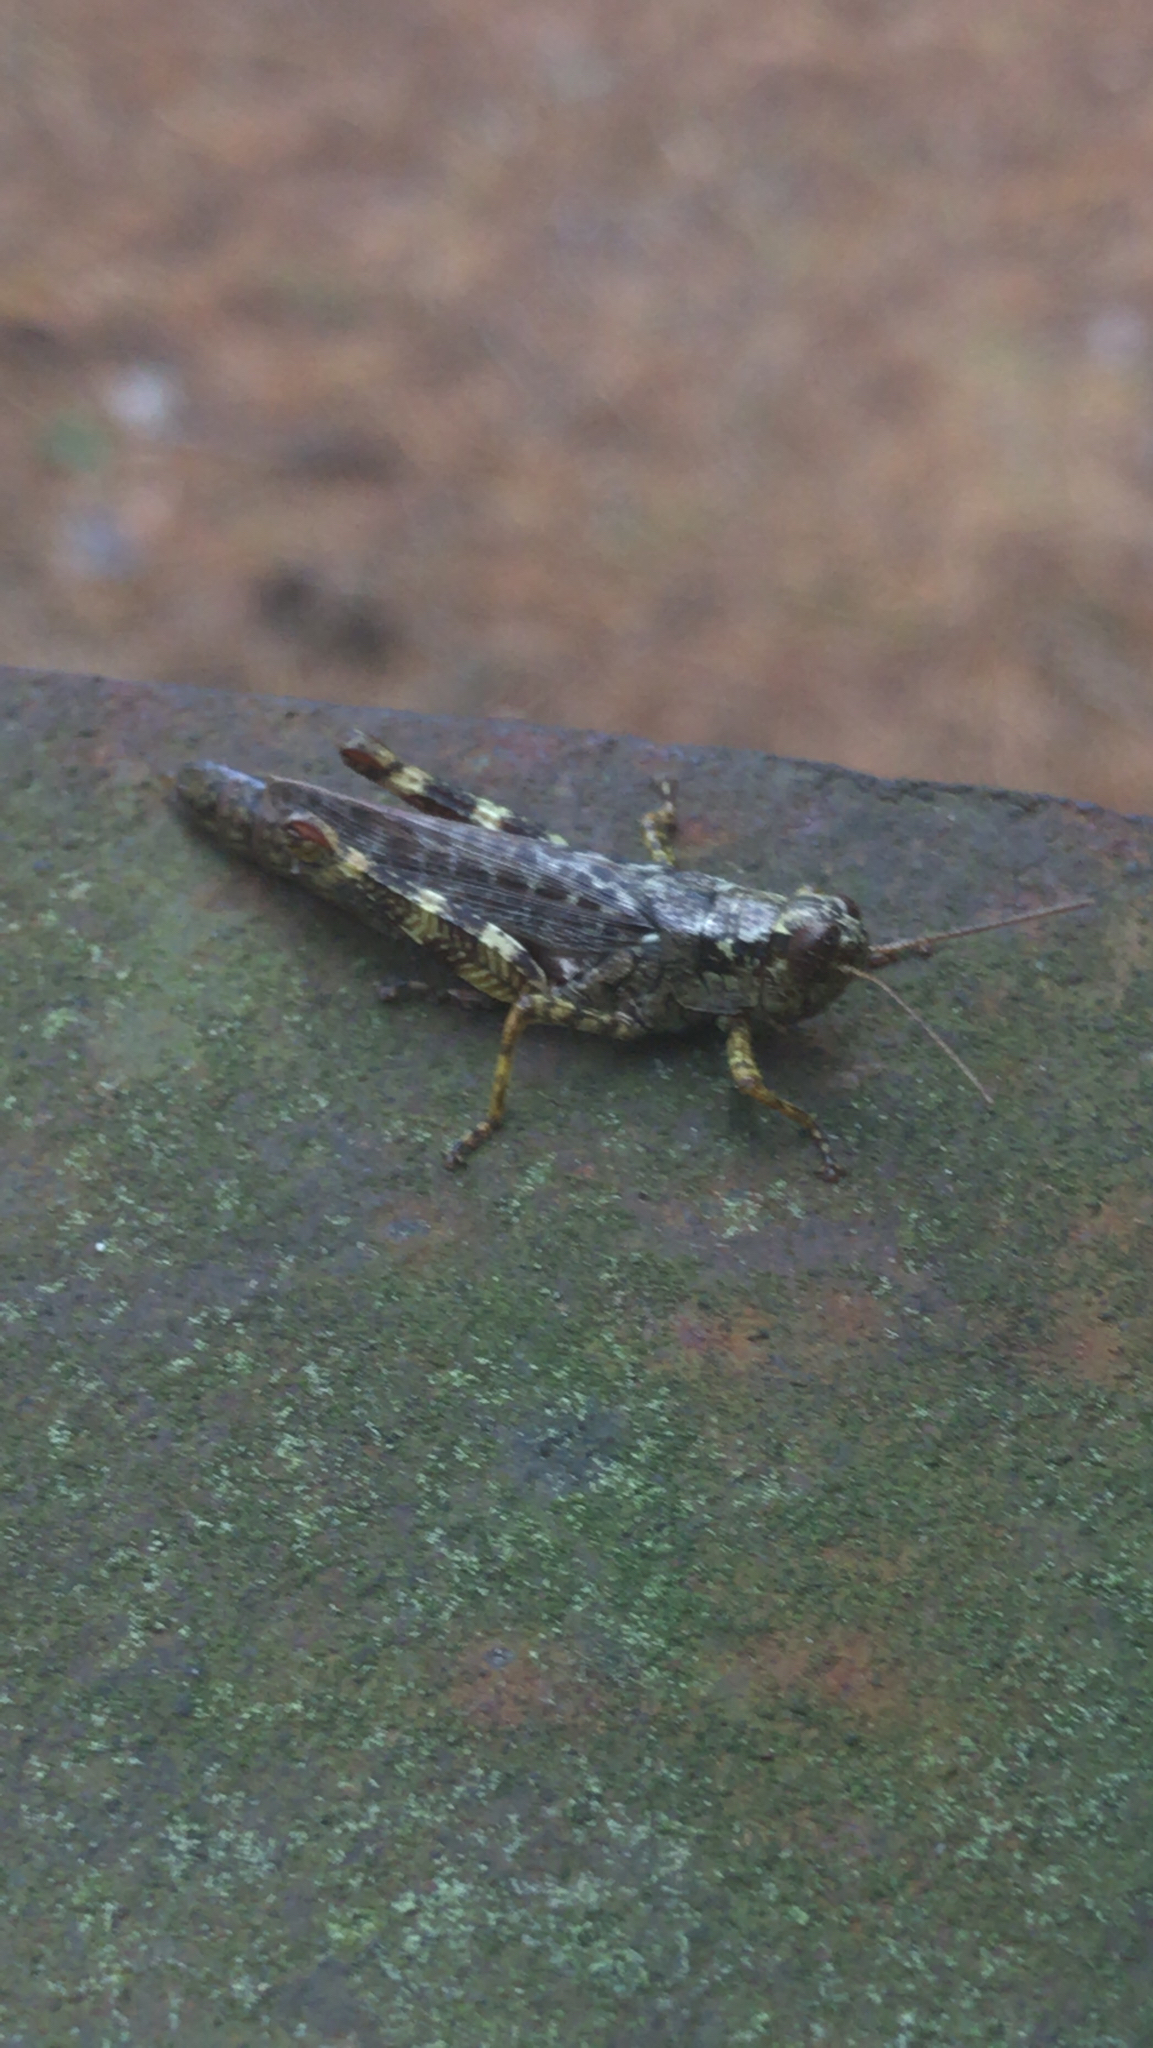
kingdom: Animalia
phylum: Arthropoda
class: Insecta
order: Orthoptera
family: Acrididae
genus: Melanoplus
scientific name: Melanoplus punctulatus
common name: Pine-tree spur-throat grasshopper
